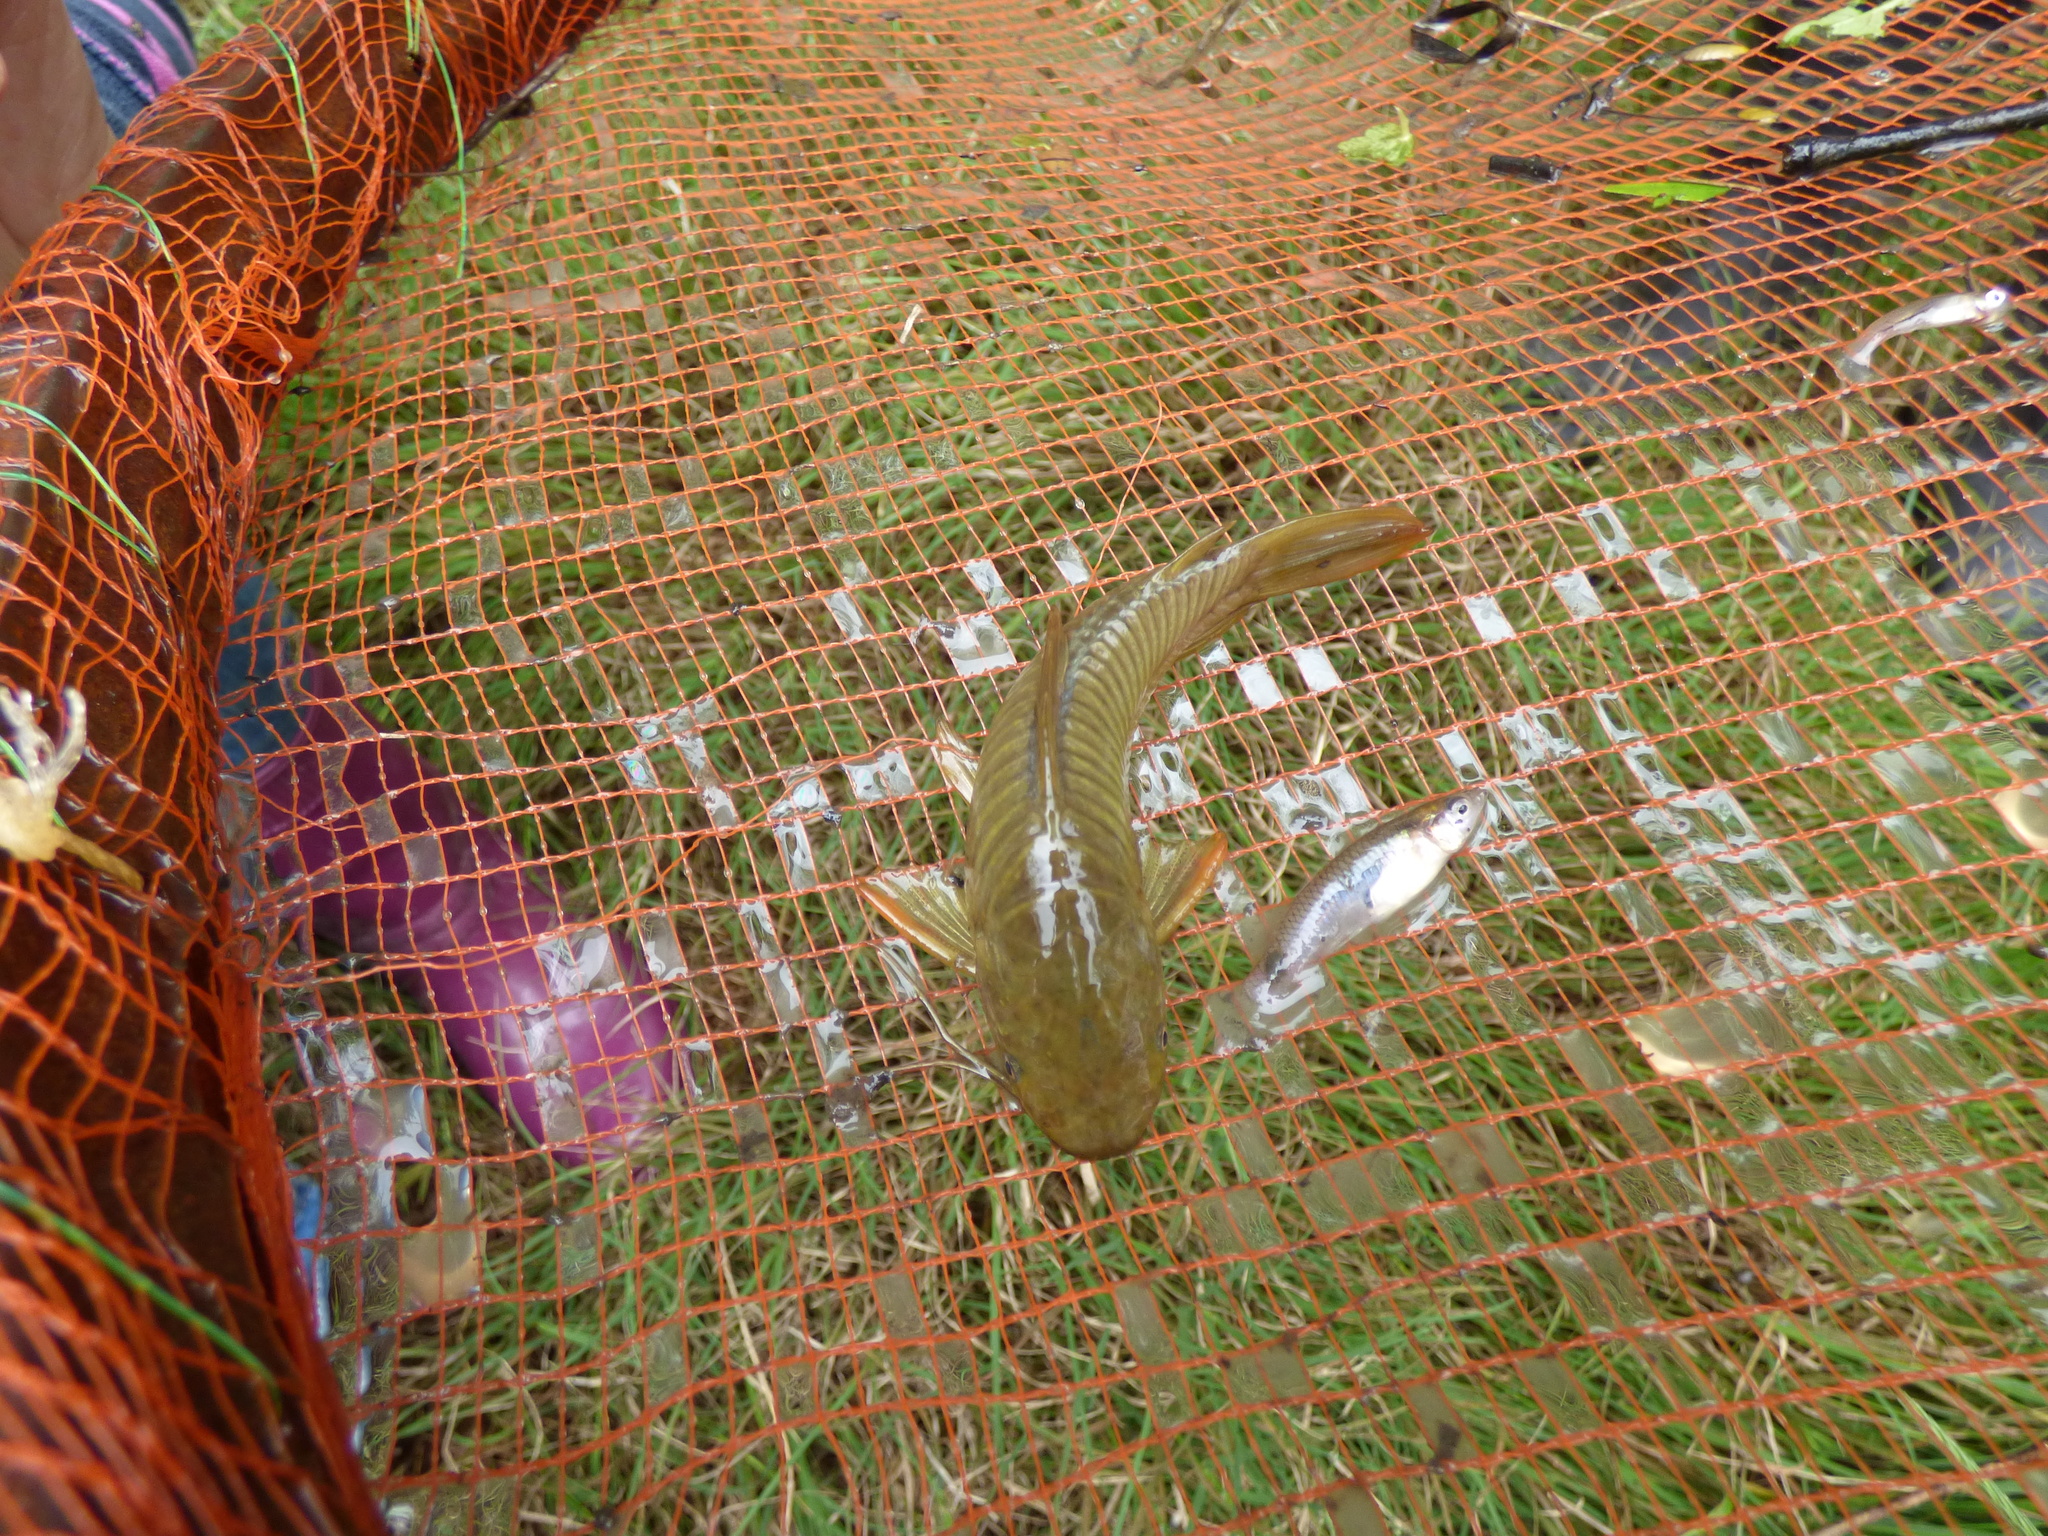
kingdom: Animalia
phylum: Chordata
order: Siluriformes
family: Callichthyidae
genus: Hoplosternum
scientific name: Hoplosternum littorale
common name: Brown hoplo
